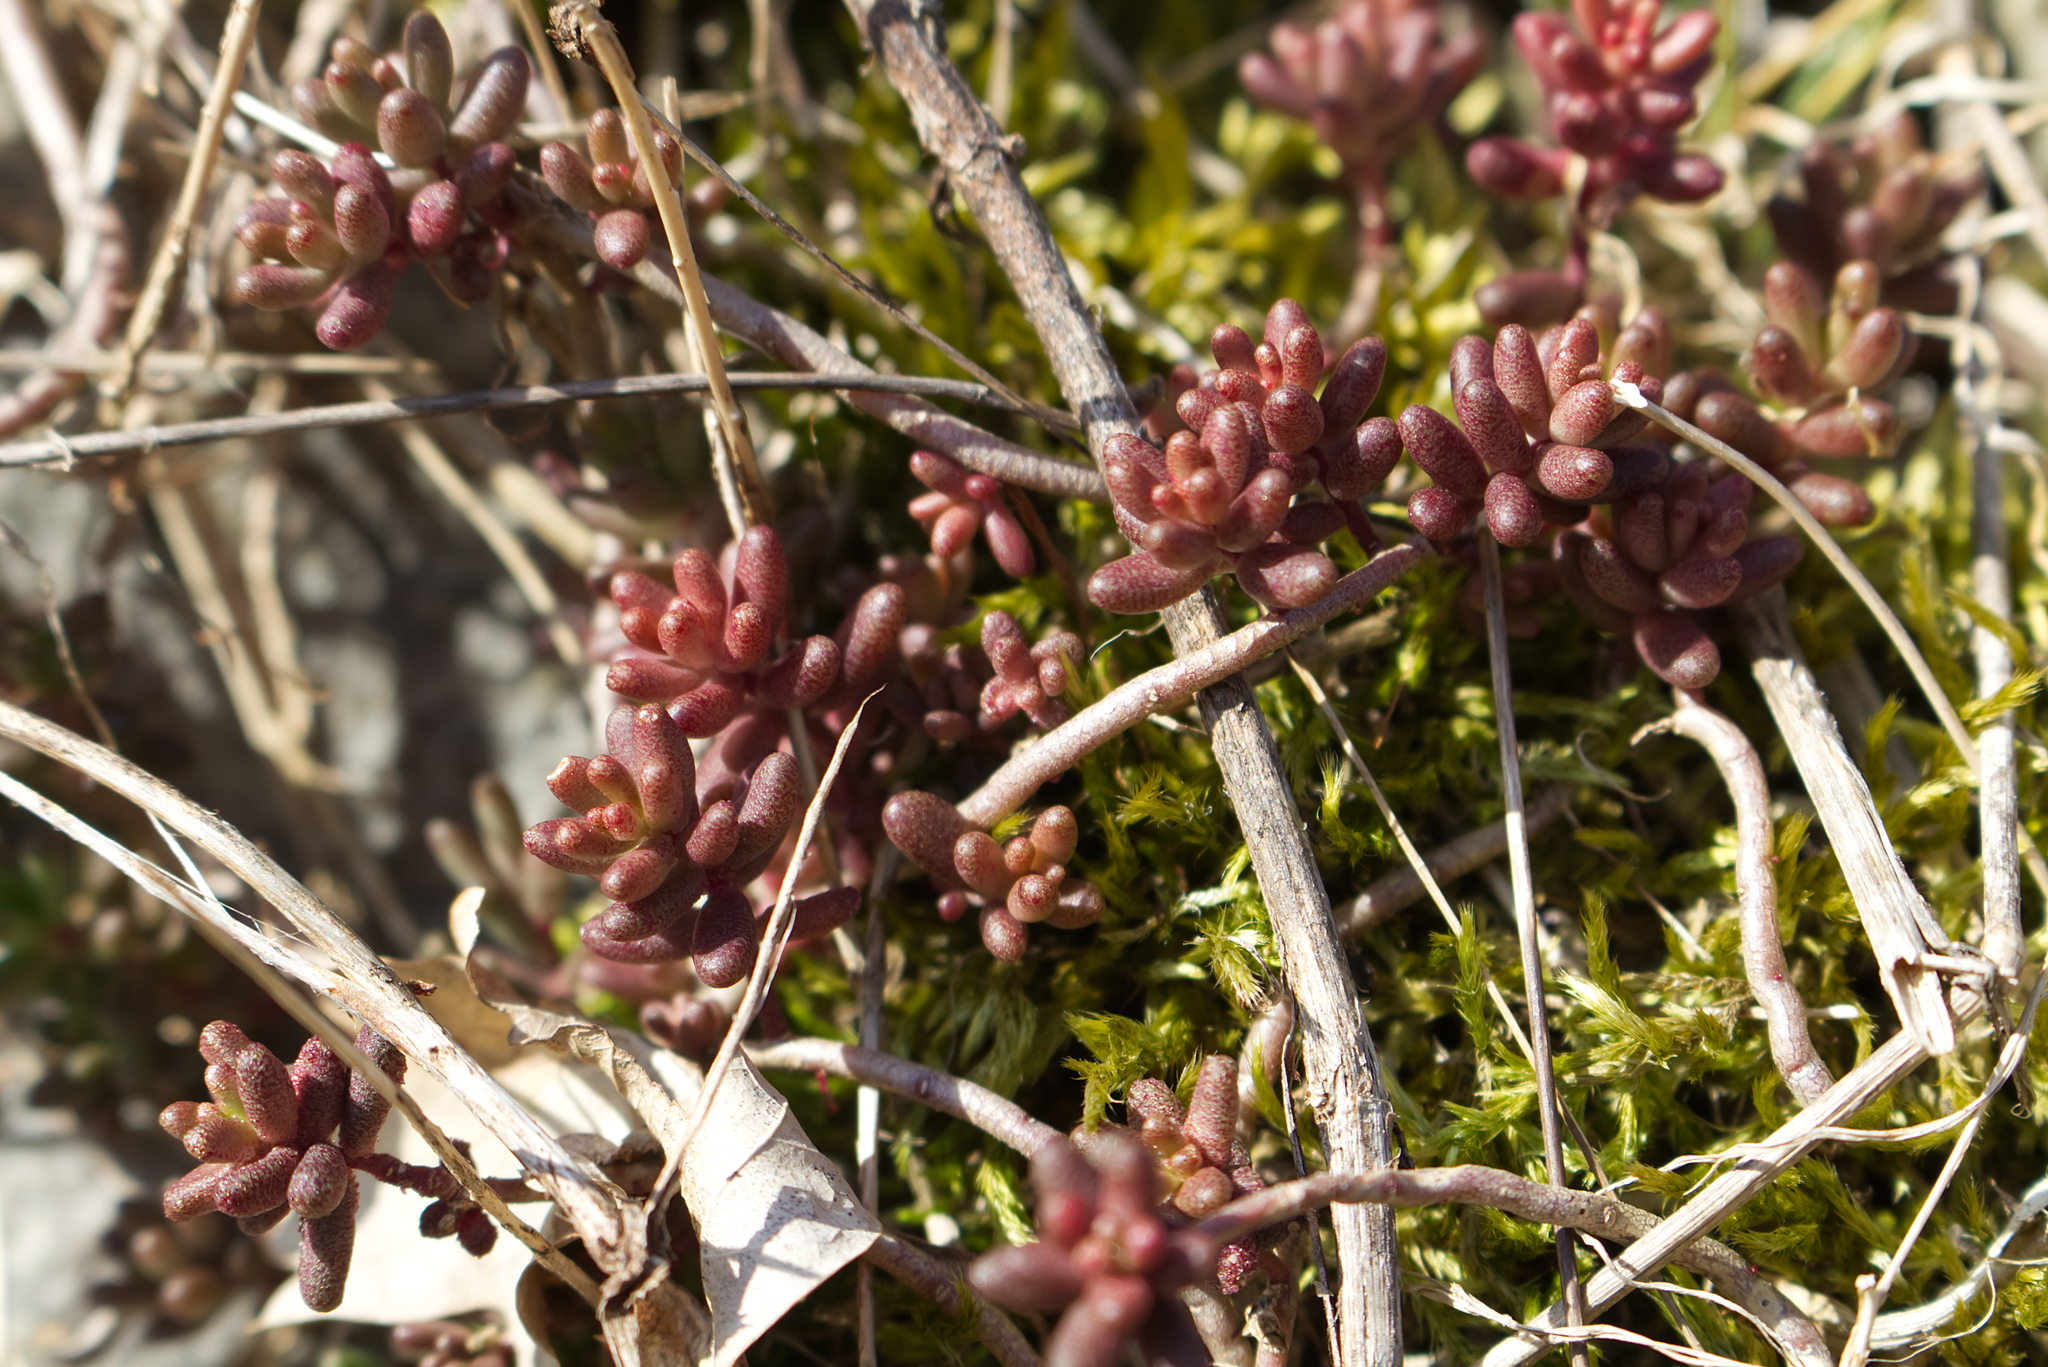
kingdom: Plantae
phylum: Tracheophyta
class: Magnoliopsida
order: Saxifragales
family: Crassulaceae
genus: Sedum
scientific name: Sedum album
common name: White stonecrop
